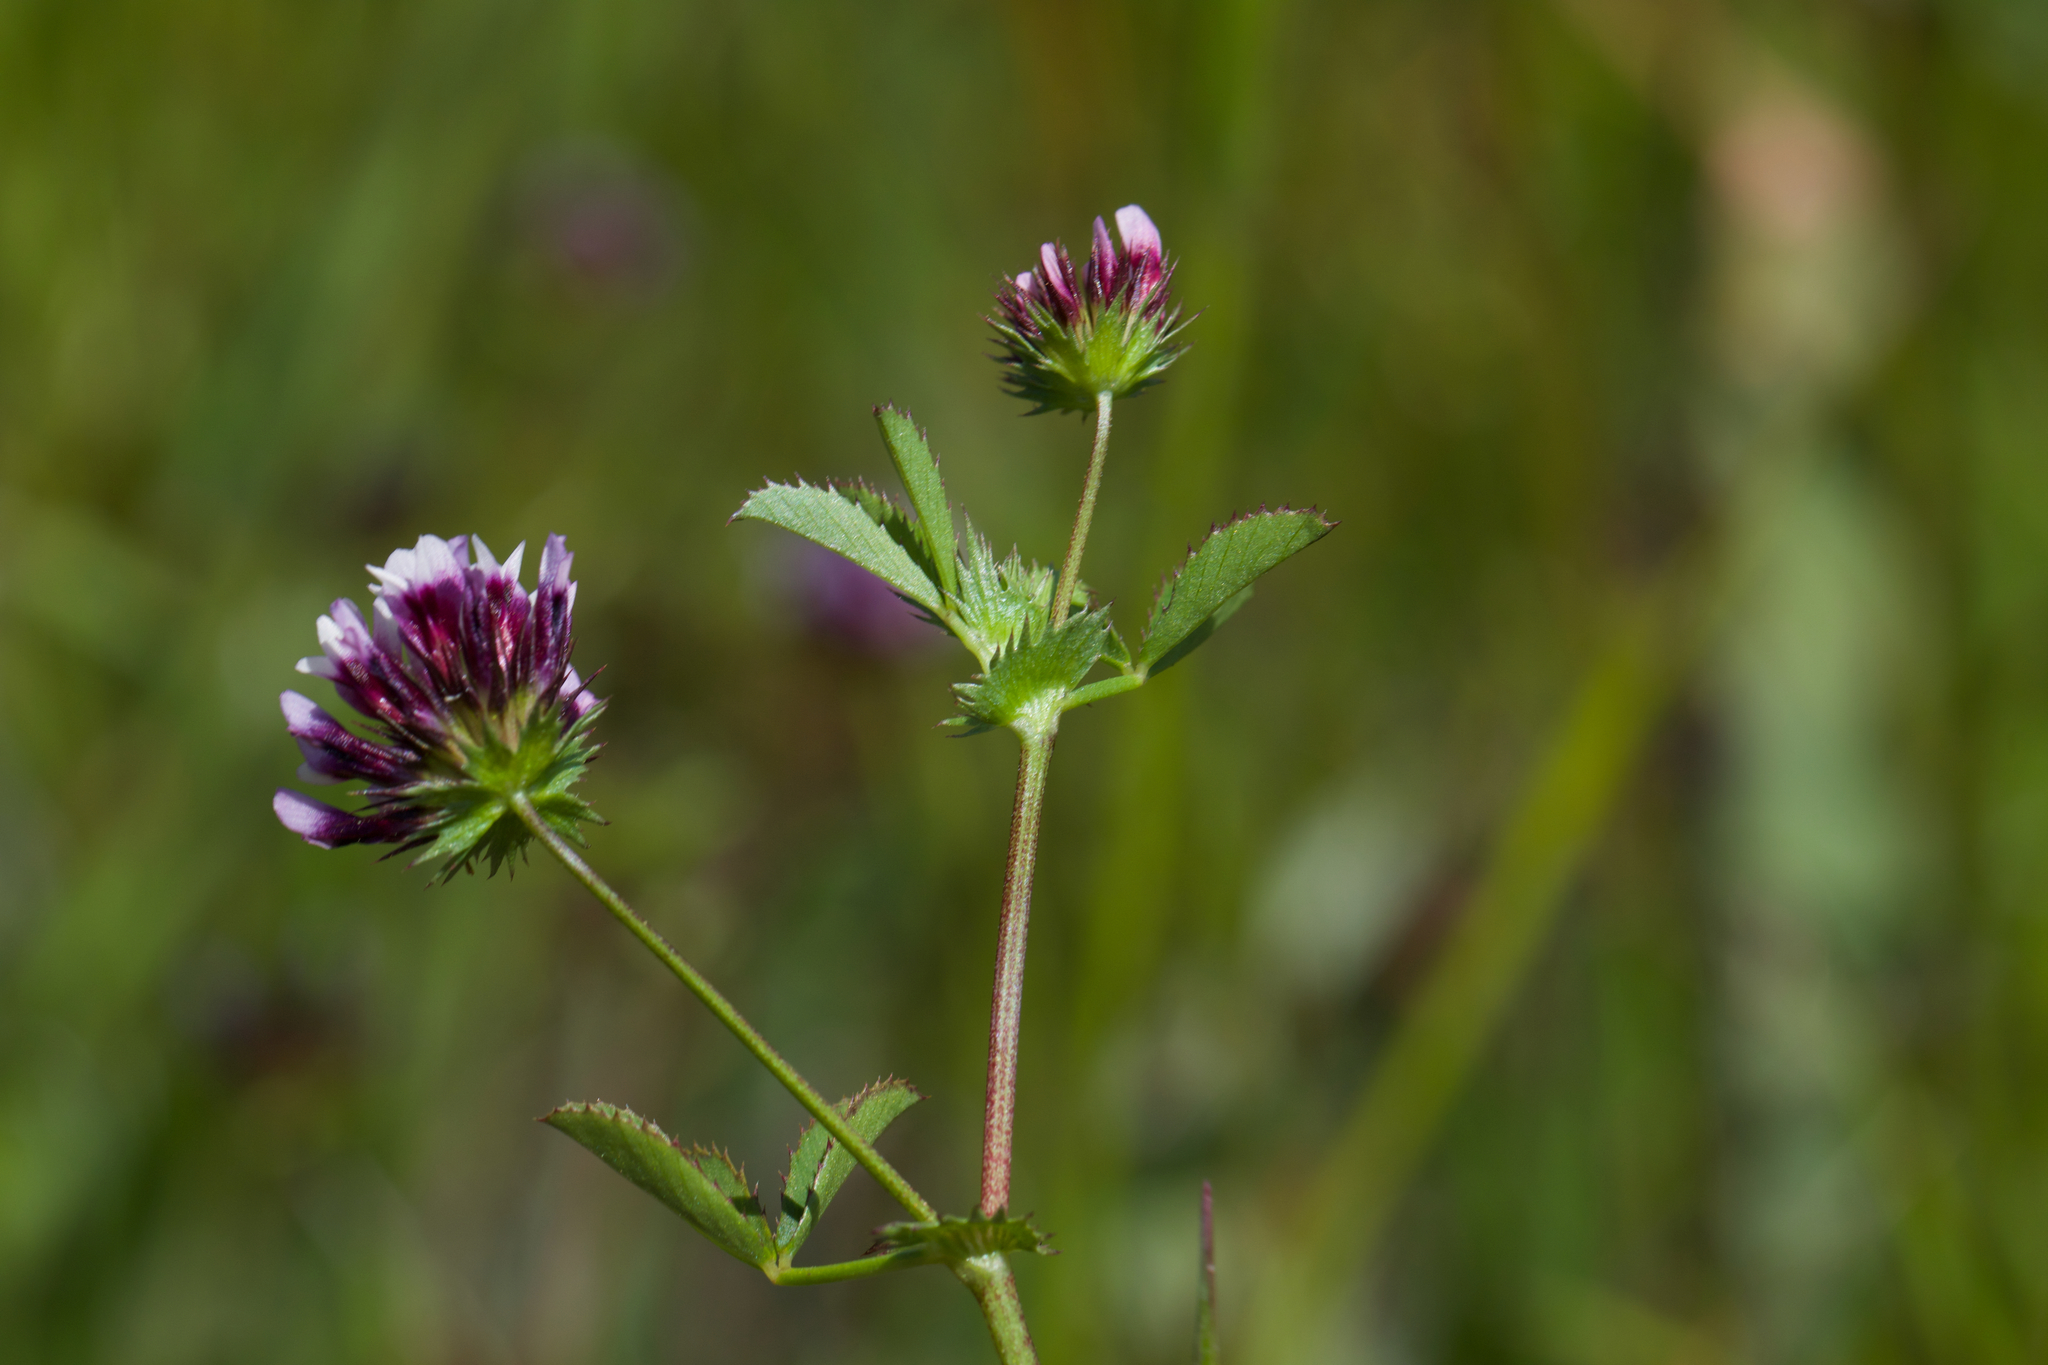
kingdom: Plantae
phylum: Tracheophyta
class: Magnoliopsida
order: Fabales
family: Fabaceae
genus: Trifolium
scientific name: Trifolium variegatum
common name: Whitetip clover
